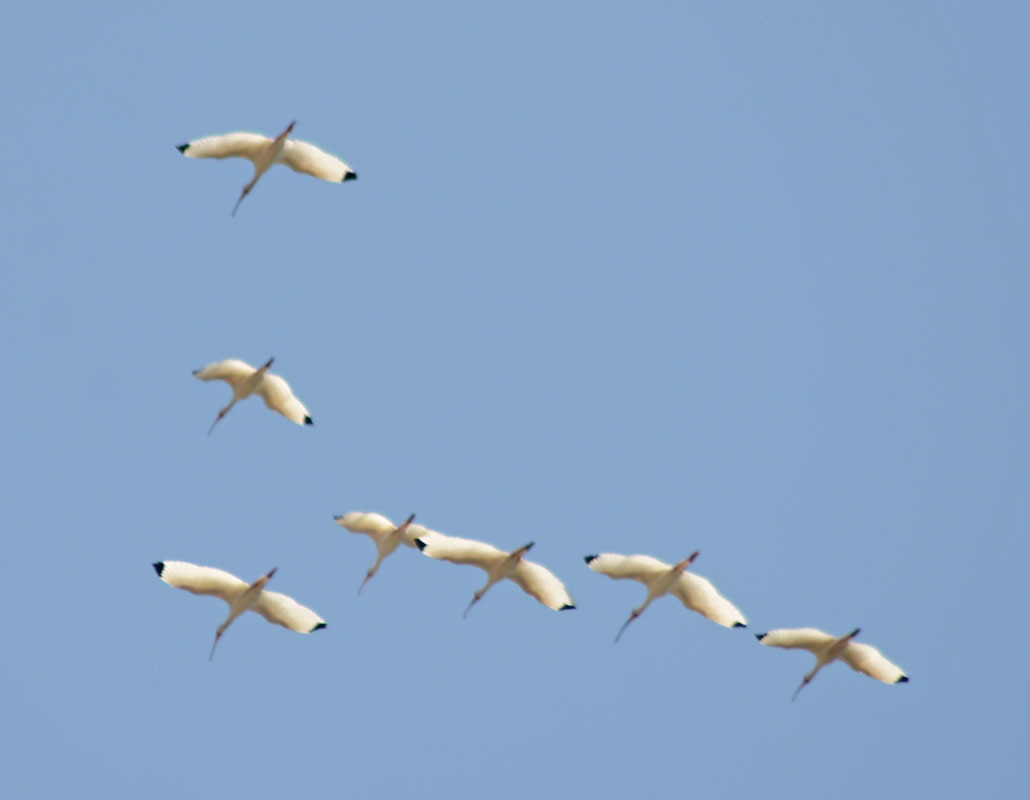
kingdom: Animalia
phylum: Chordata
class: Aves
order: Pelecaniformes
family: Threskiornithidae
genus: Eudocimus
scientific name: Eudocimus albus
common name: White ibis
